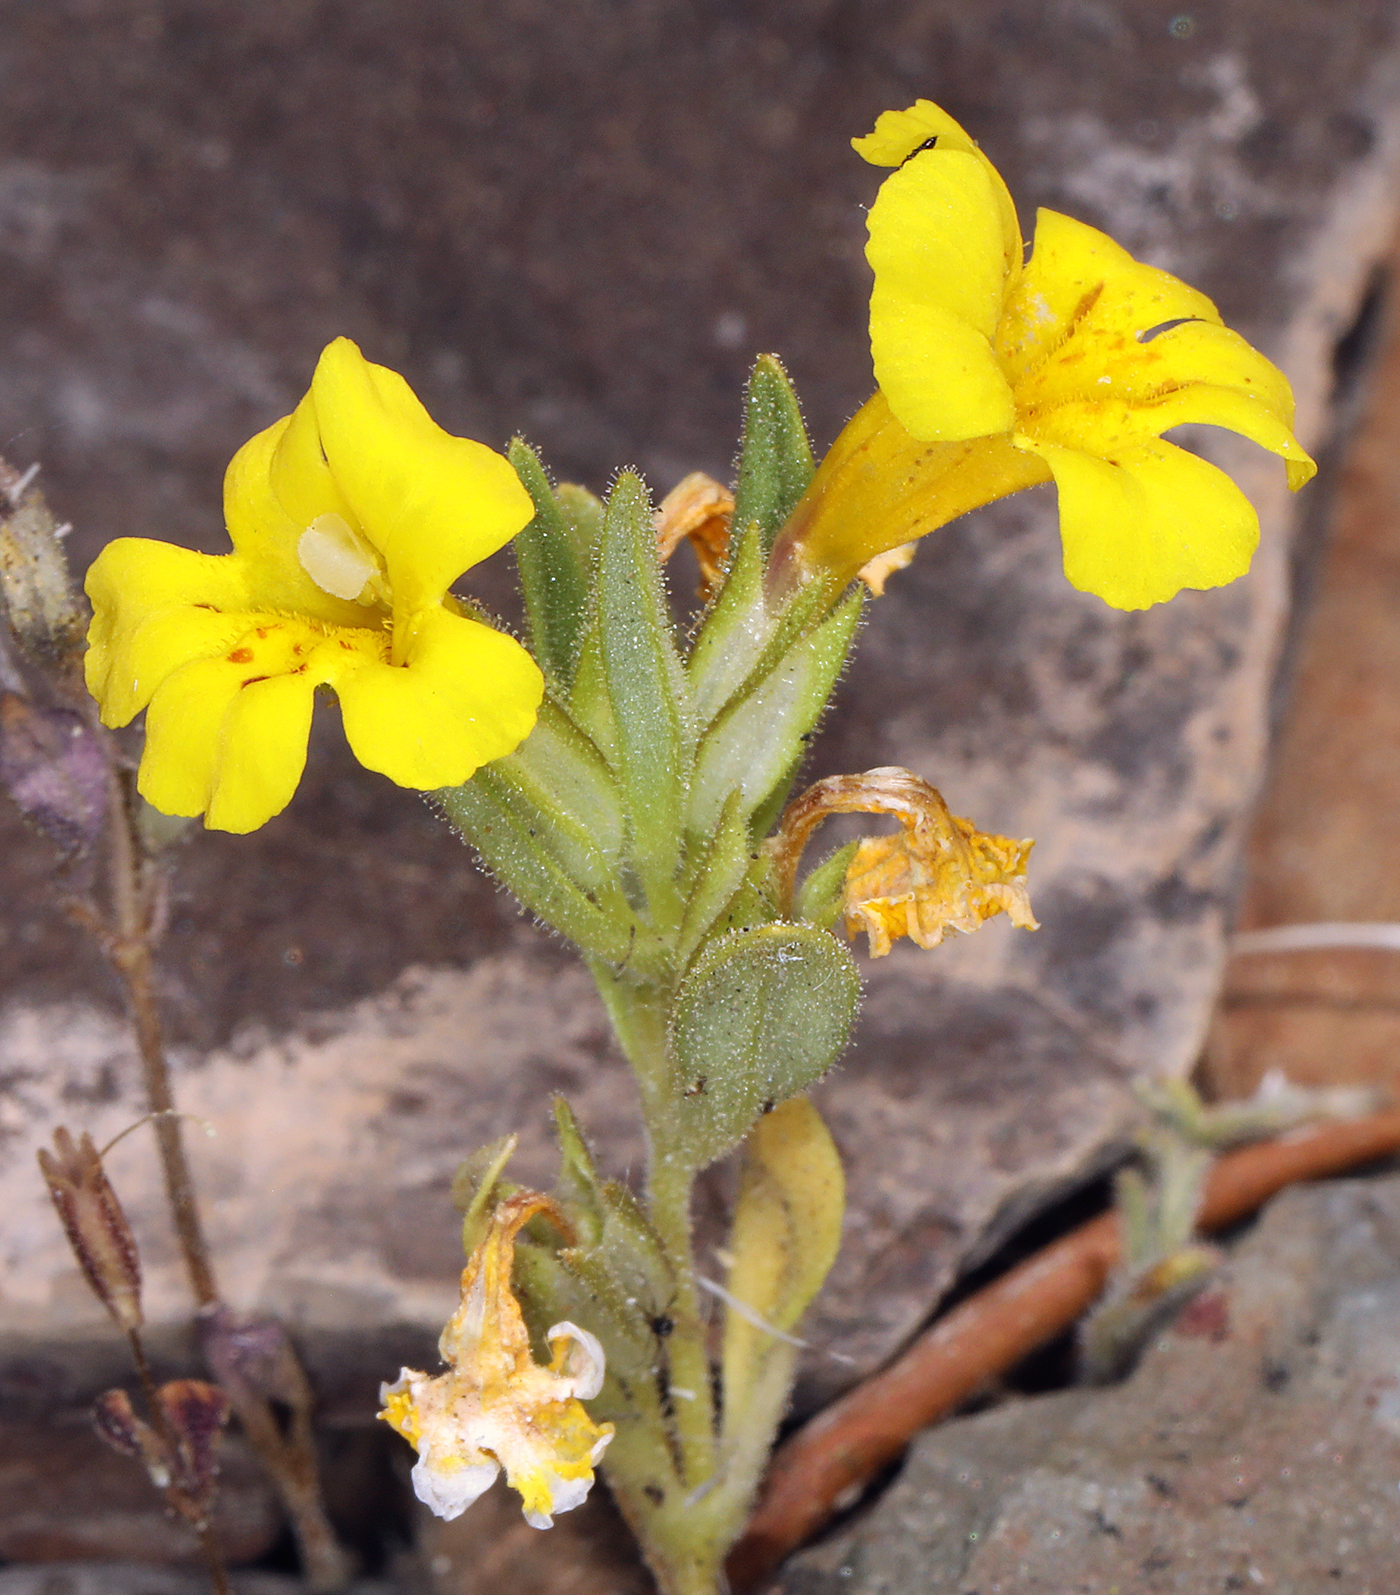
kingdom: Plantae
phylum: Tracheophyta
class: Magnoliopsida
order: Lamiales
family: Phrymaceae
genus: Diplacus
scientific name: Diplacus mephiticus
